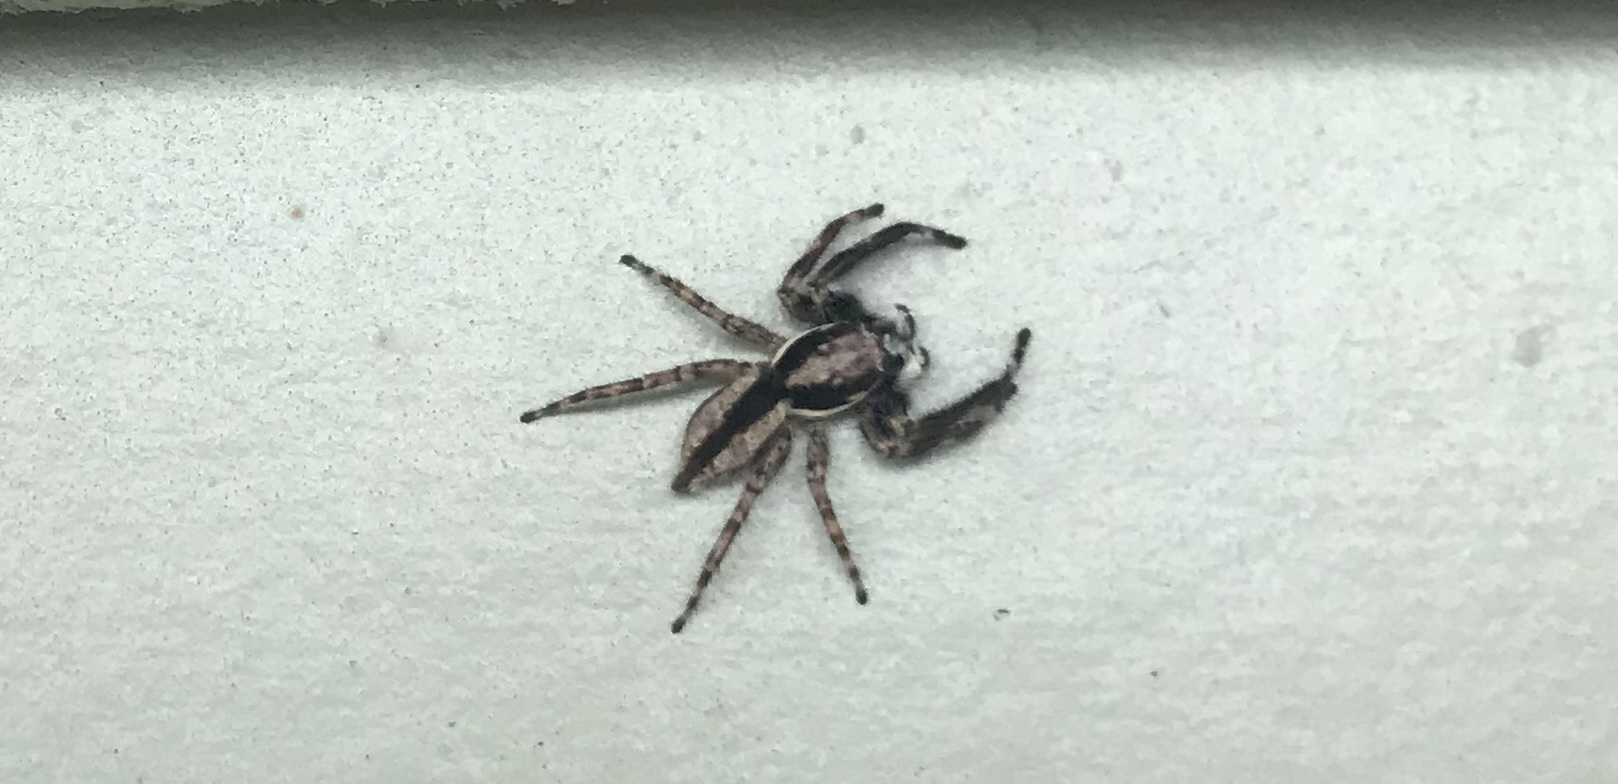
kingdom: Animalia
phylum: Arthropoda
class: Arachnida
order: Araneae
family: Salticidae
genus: Menemerus
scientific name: Menemerus bivittatus
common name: Gray wall jumper
